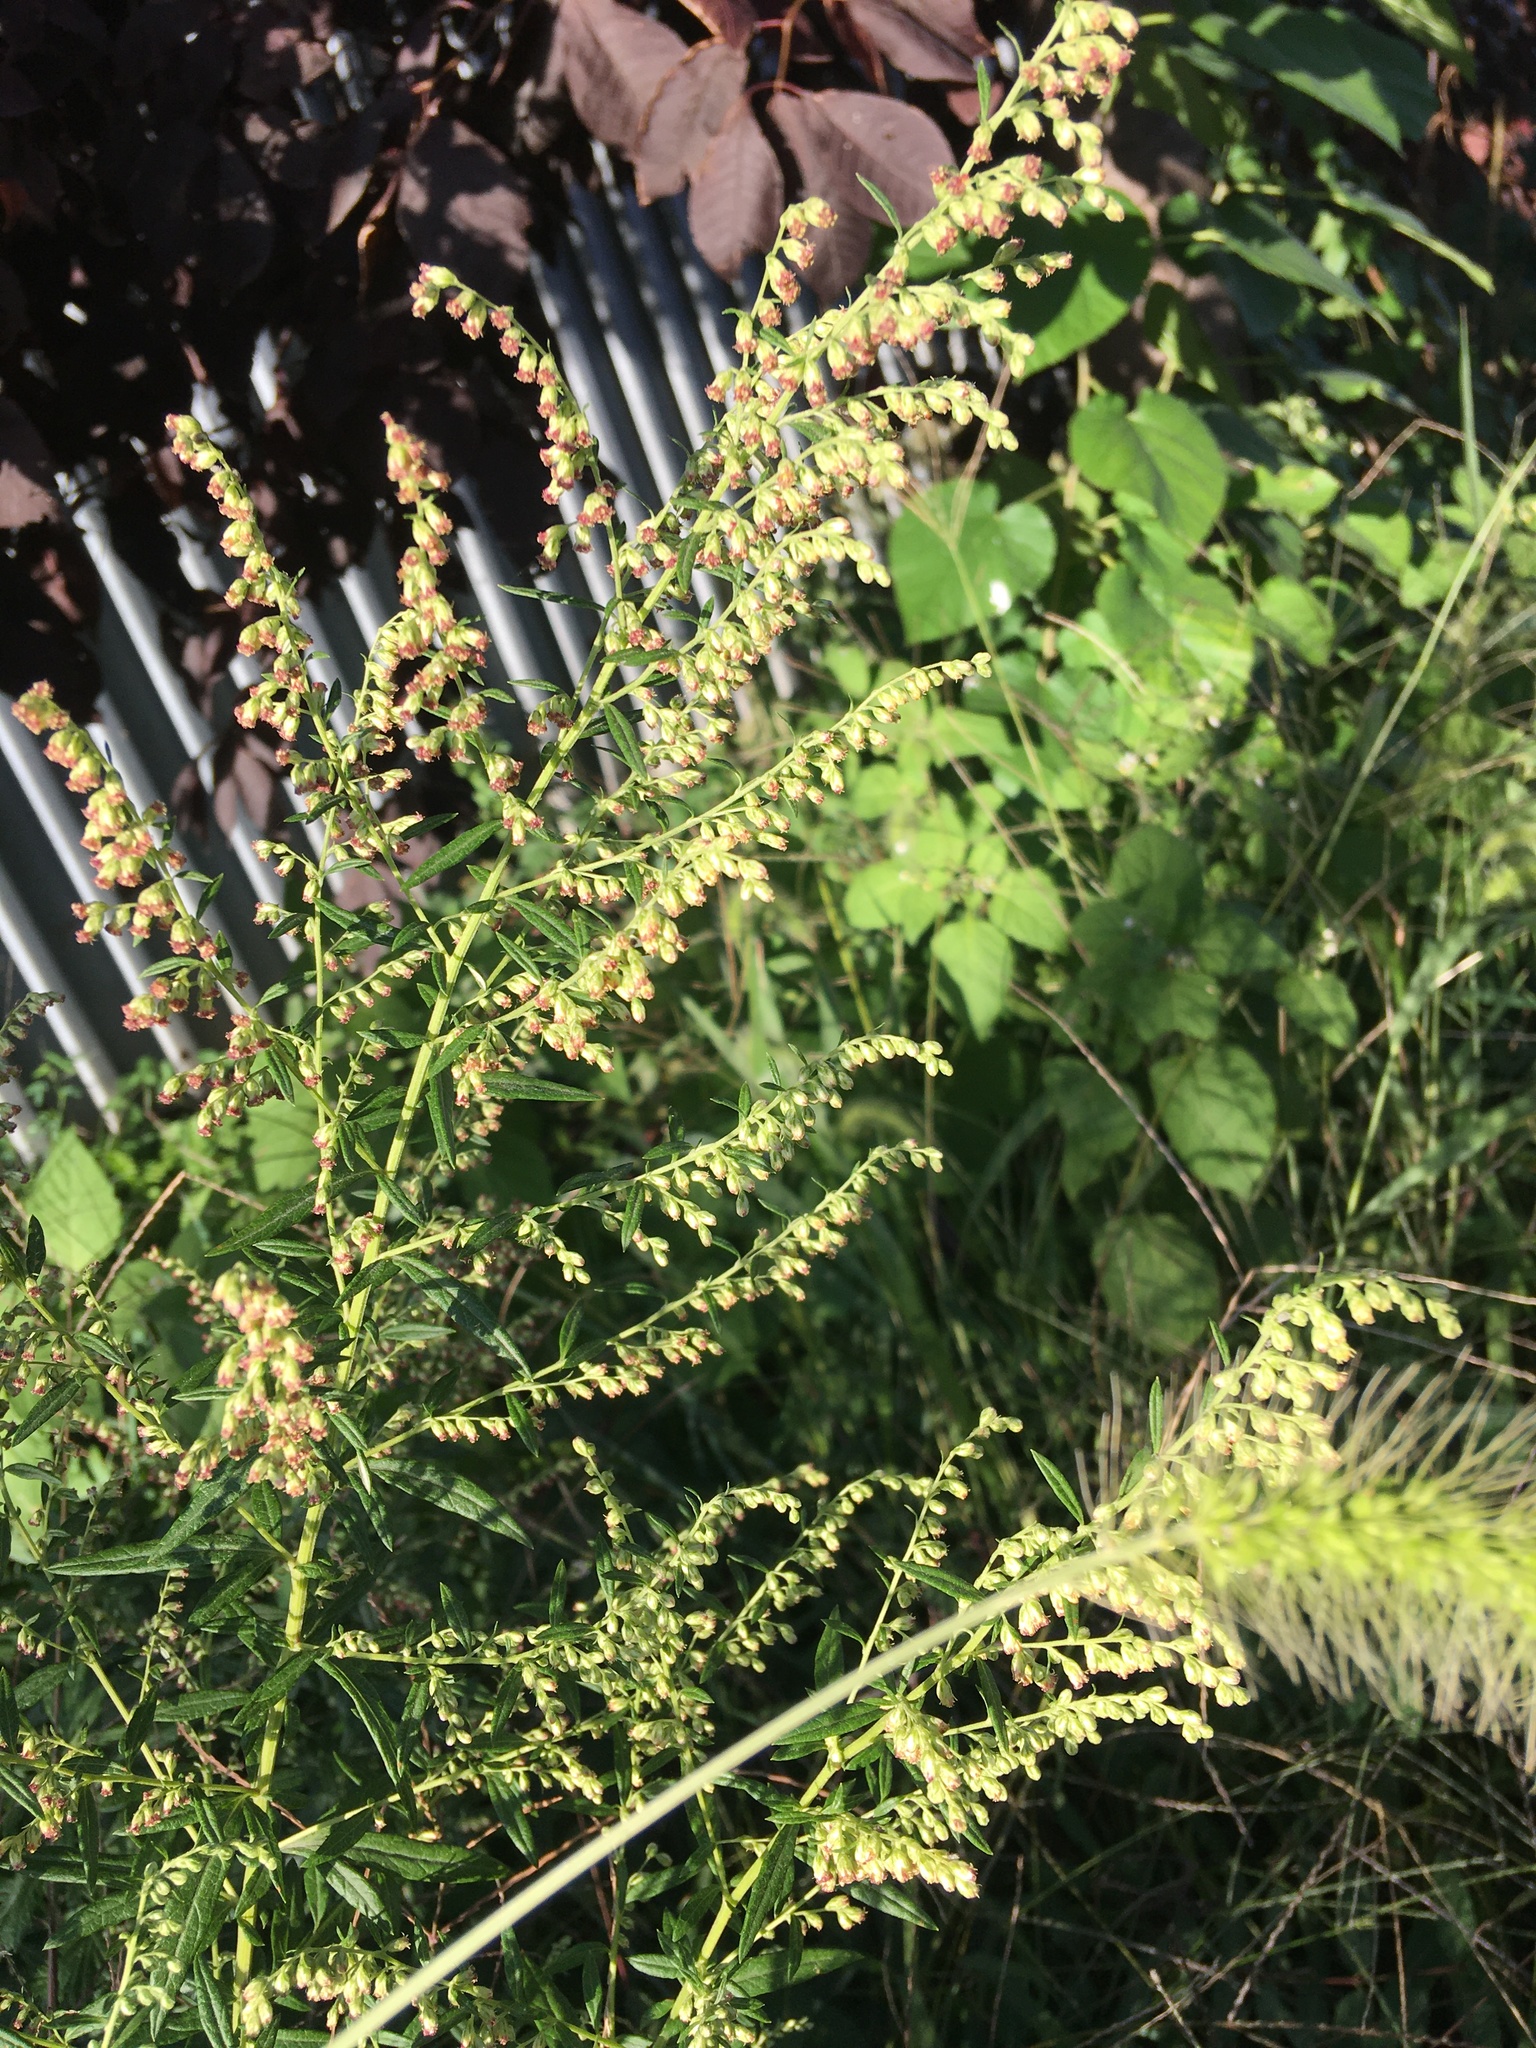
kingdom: Plantae
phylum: Tracheophyta
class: Magnoliopsida
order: Asterales
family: Asteraceae
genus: Artemisia
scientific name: Artemisia vulgaris
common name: Mugwort
